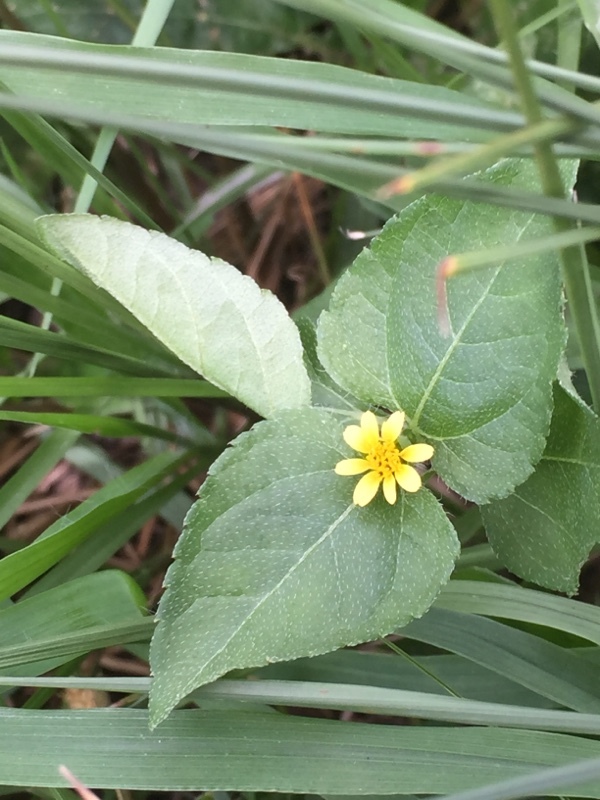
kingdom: Plantae
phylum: Tracheophyta
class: Magnoliopsida
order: Asterales
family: Asteraceae
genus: Calyptocarpus
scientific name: Calyptocarpus vialis
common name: Straggler daisy
